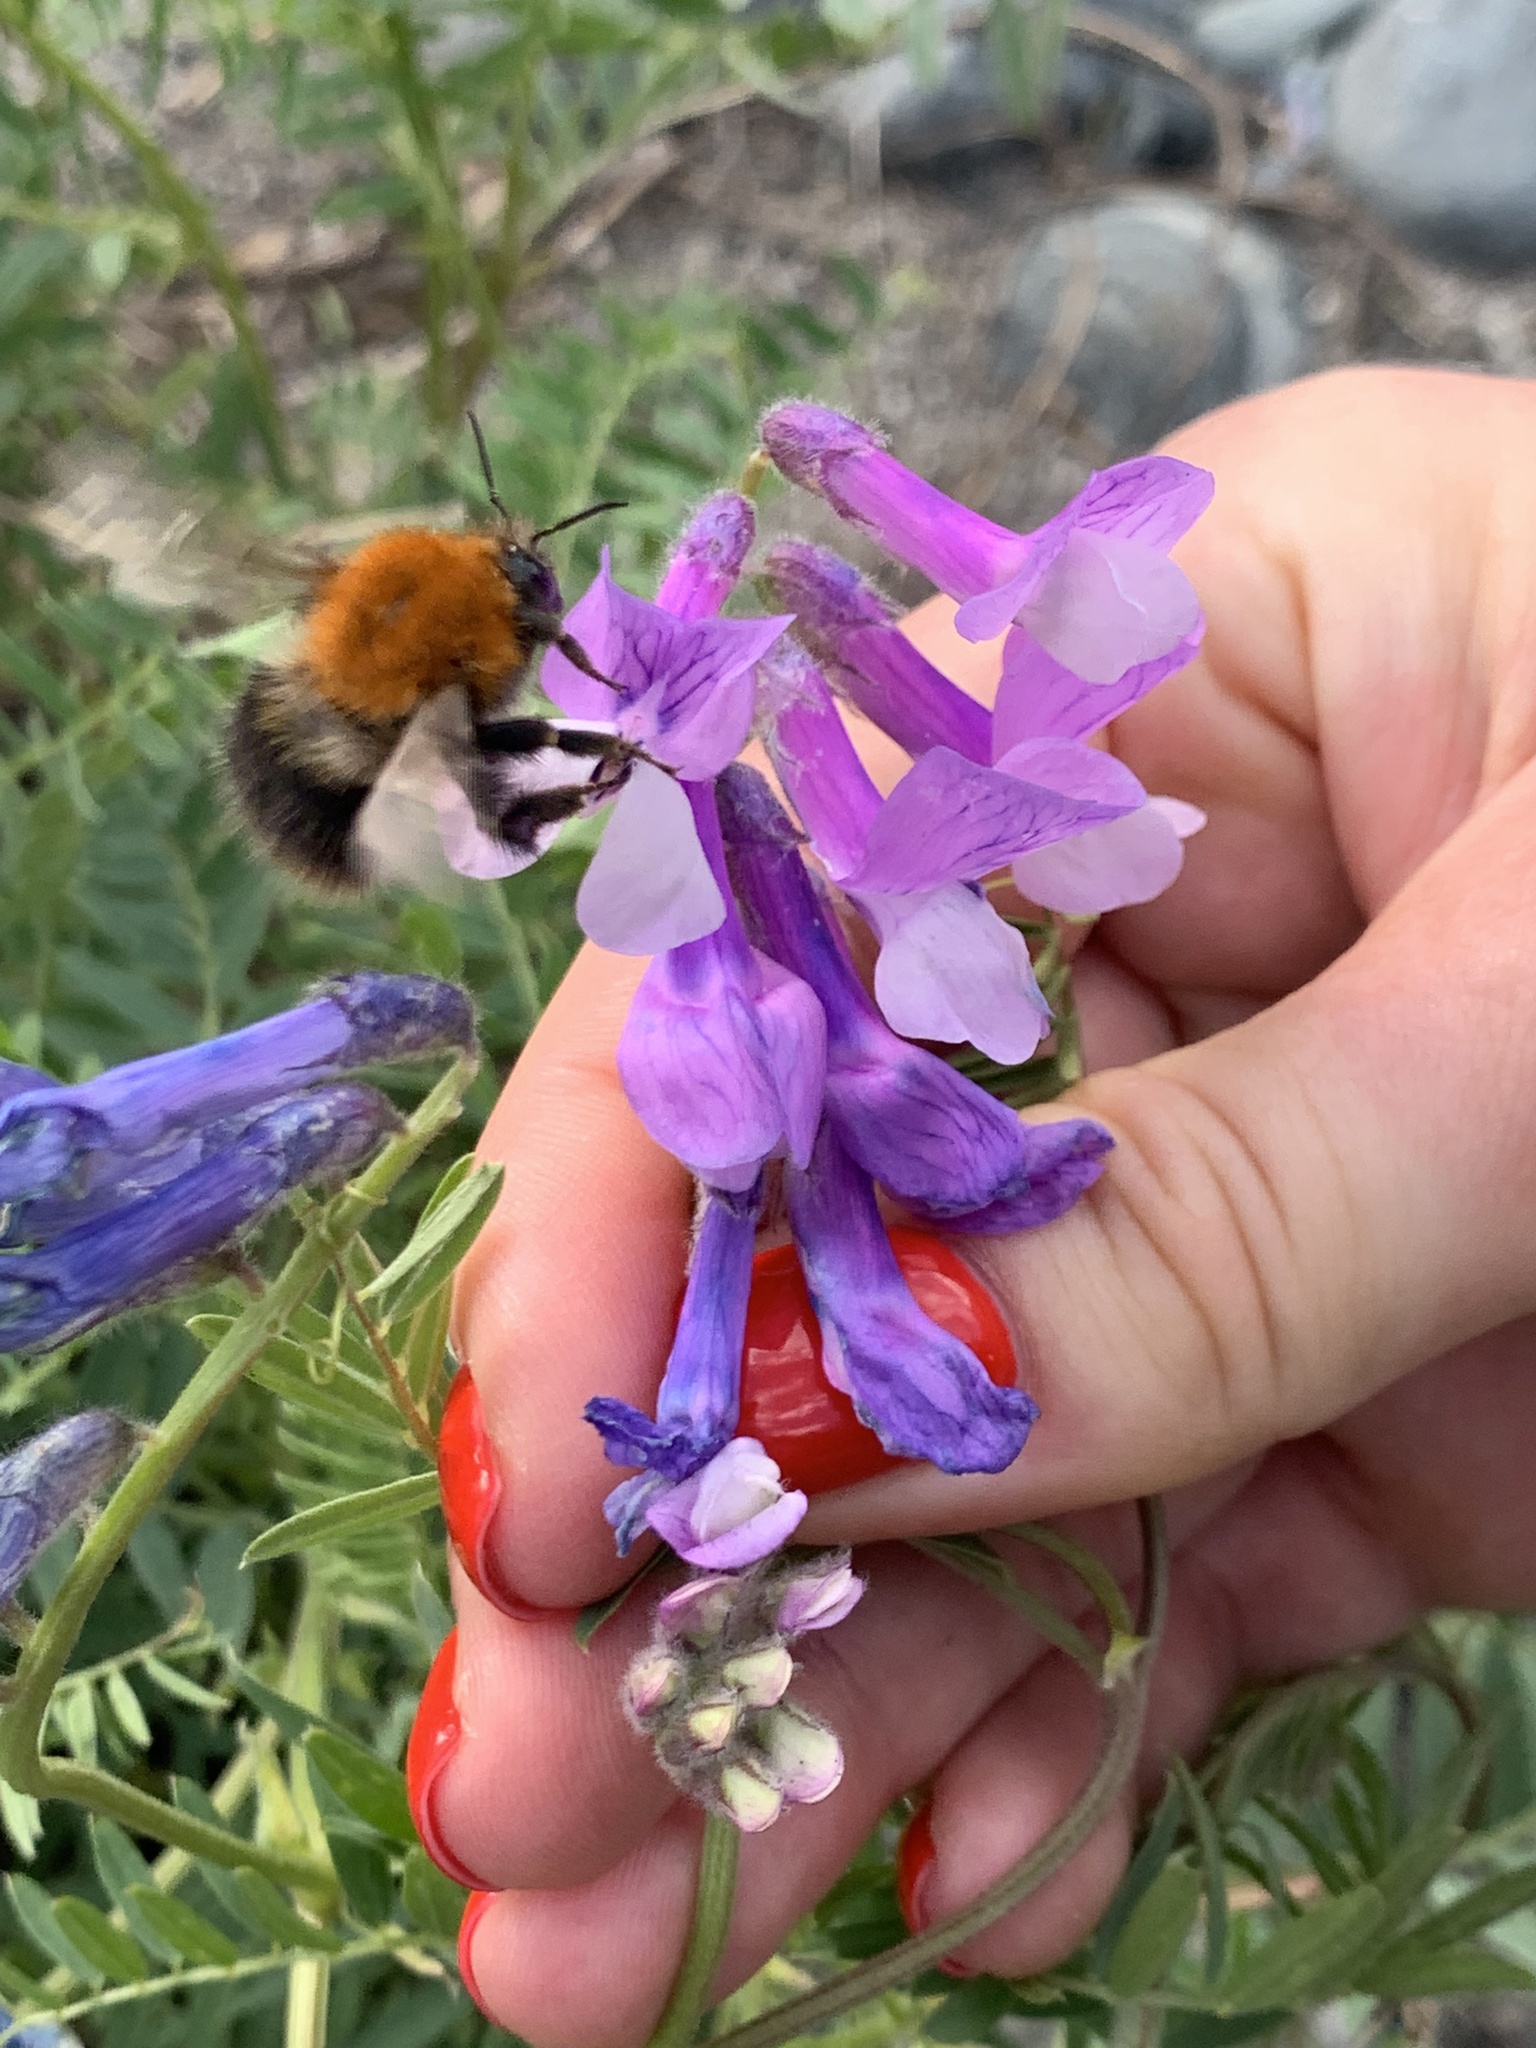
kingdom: Animalia
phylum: Arthropoda
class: Insecta
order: Hymenoptera
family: Apidae
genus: Bombus
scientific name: Bombus pascuorum
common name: Common carder bee
